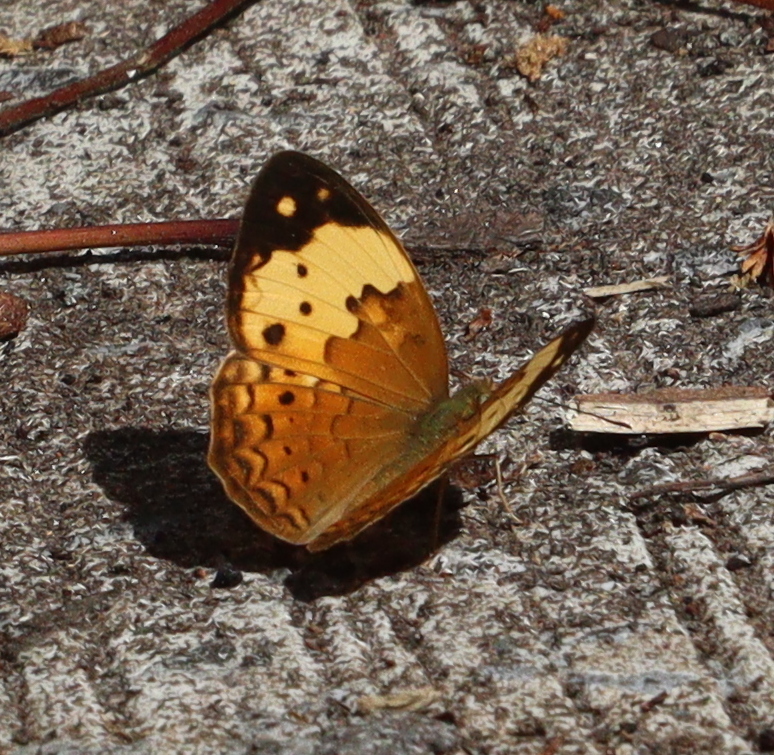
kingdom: Animalia
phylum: Arthropoda
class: Insecta
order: Lepidoptera
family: Nymphalidae
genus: Cupha
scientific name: Cupha erymanthis
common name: Rustic
